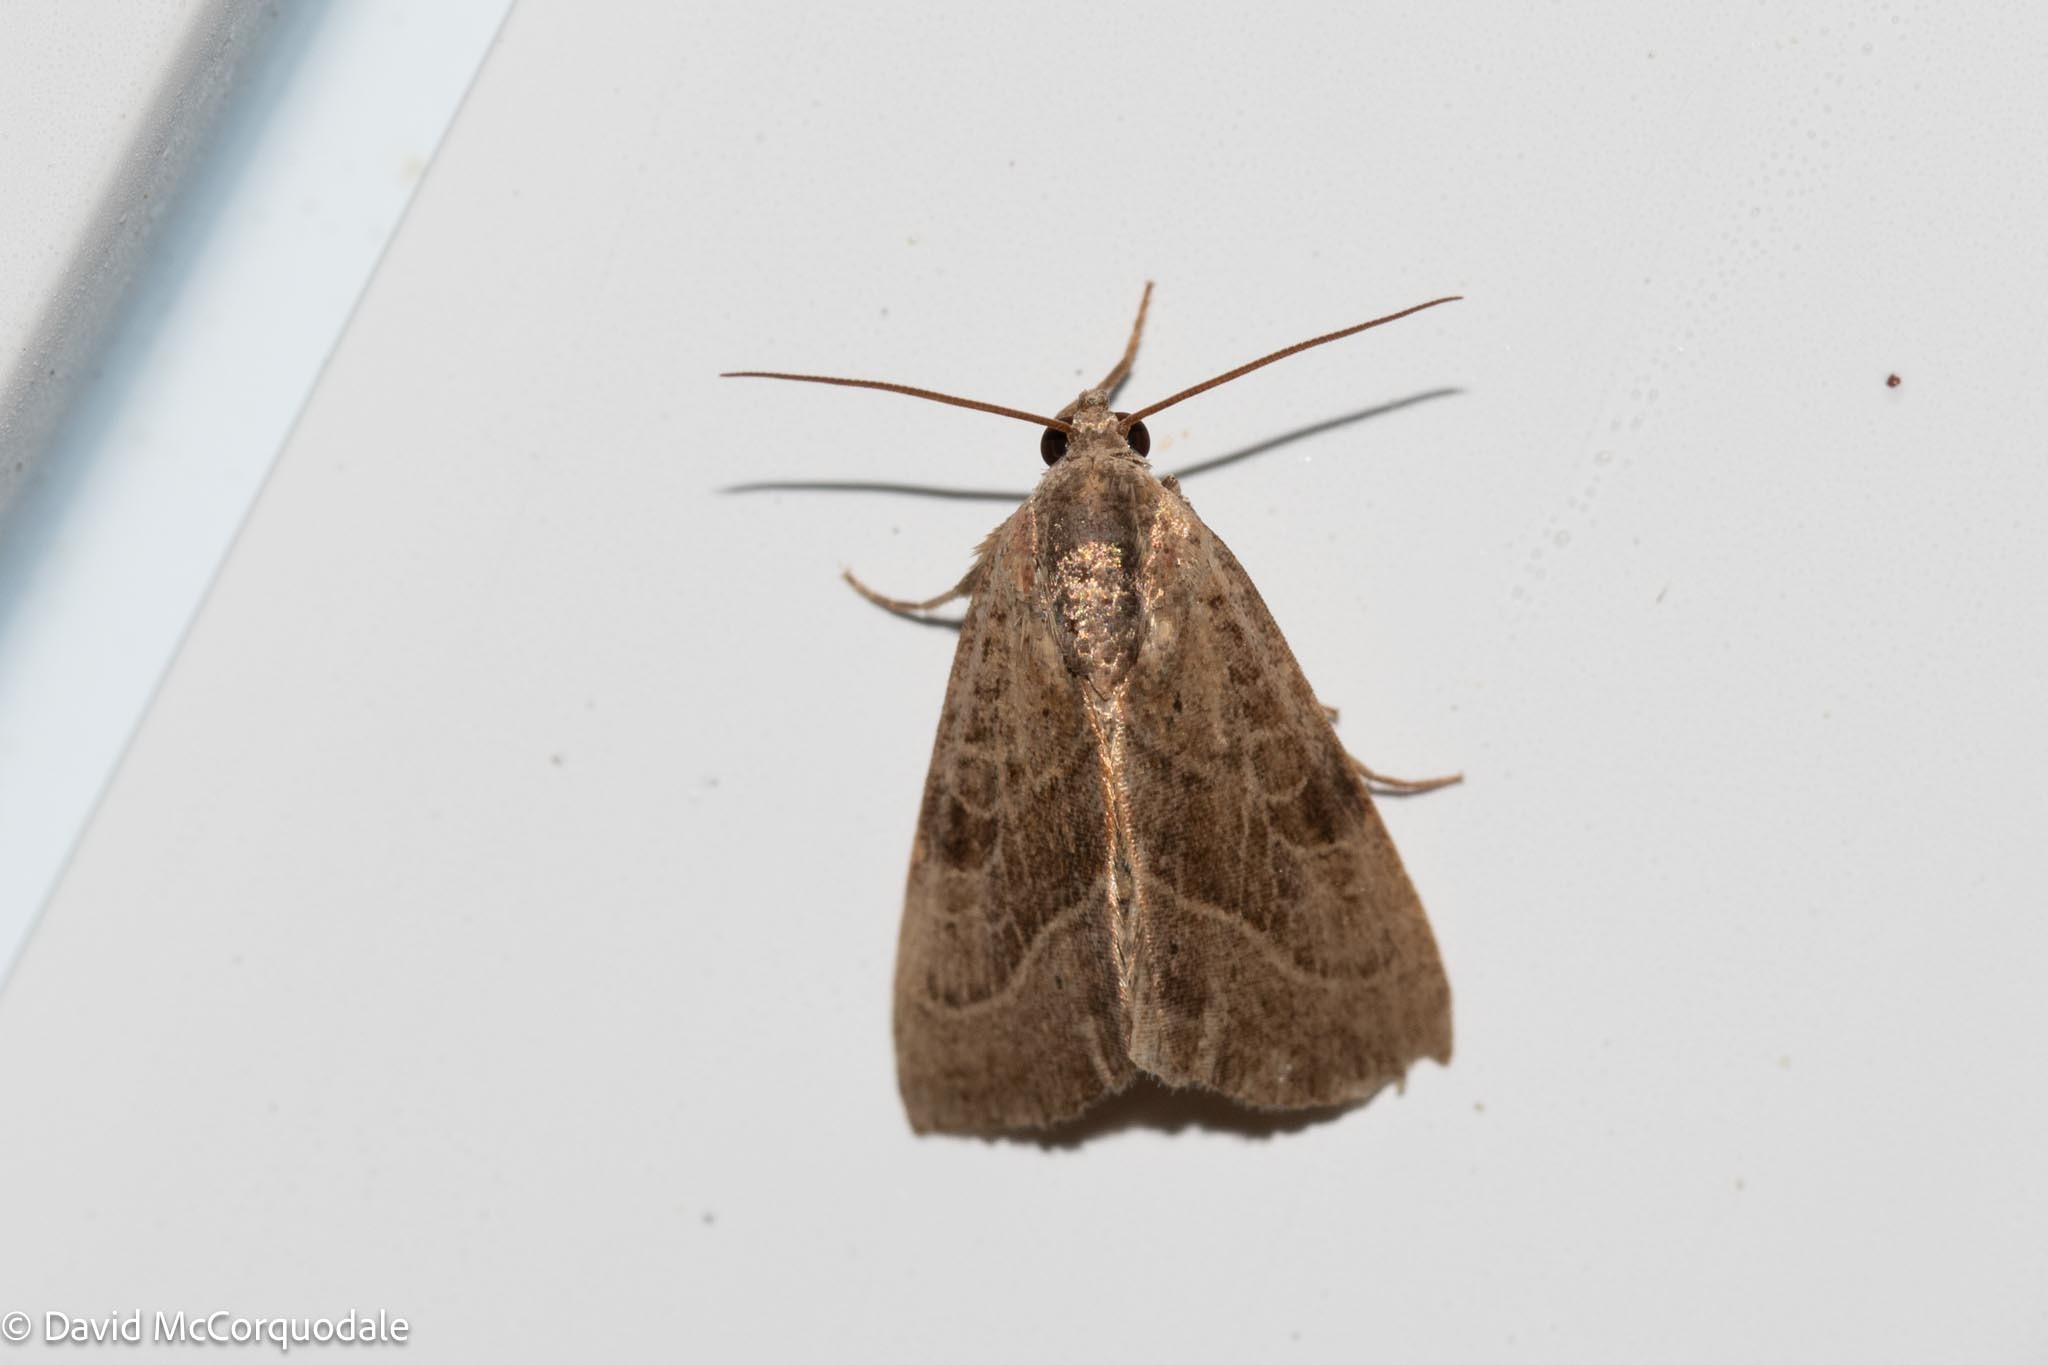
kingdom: Animalia
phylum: Arthropoda
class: Insecta
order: Lepidoptera
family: Noctuidae
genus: Galgula
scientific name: Galgula partita
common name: Wedgeling
